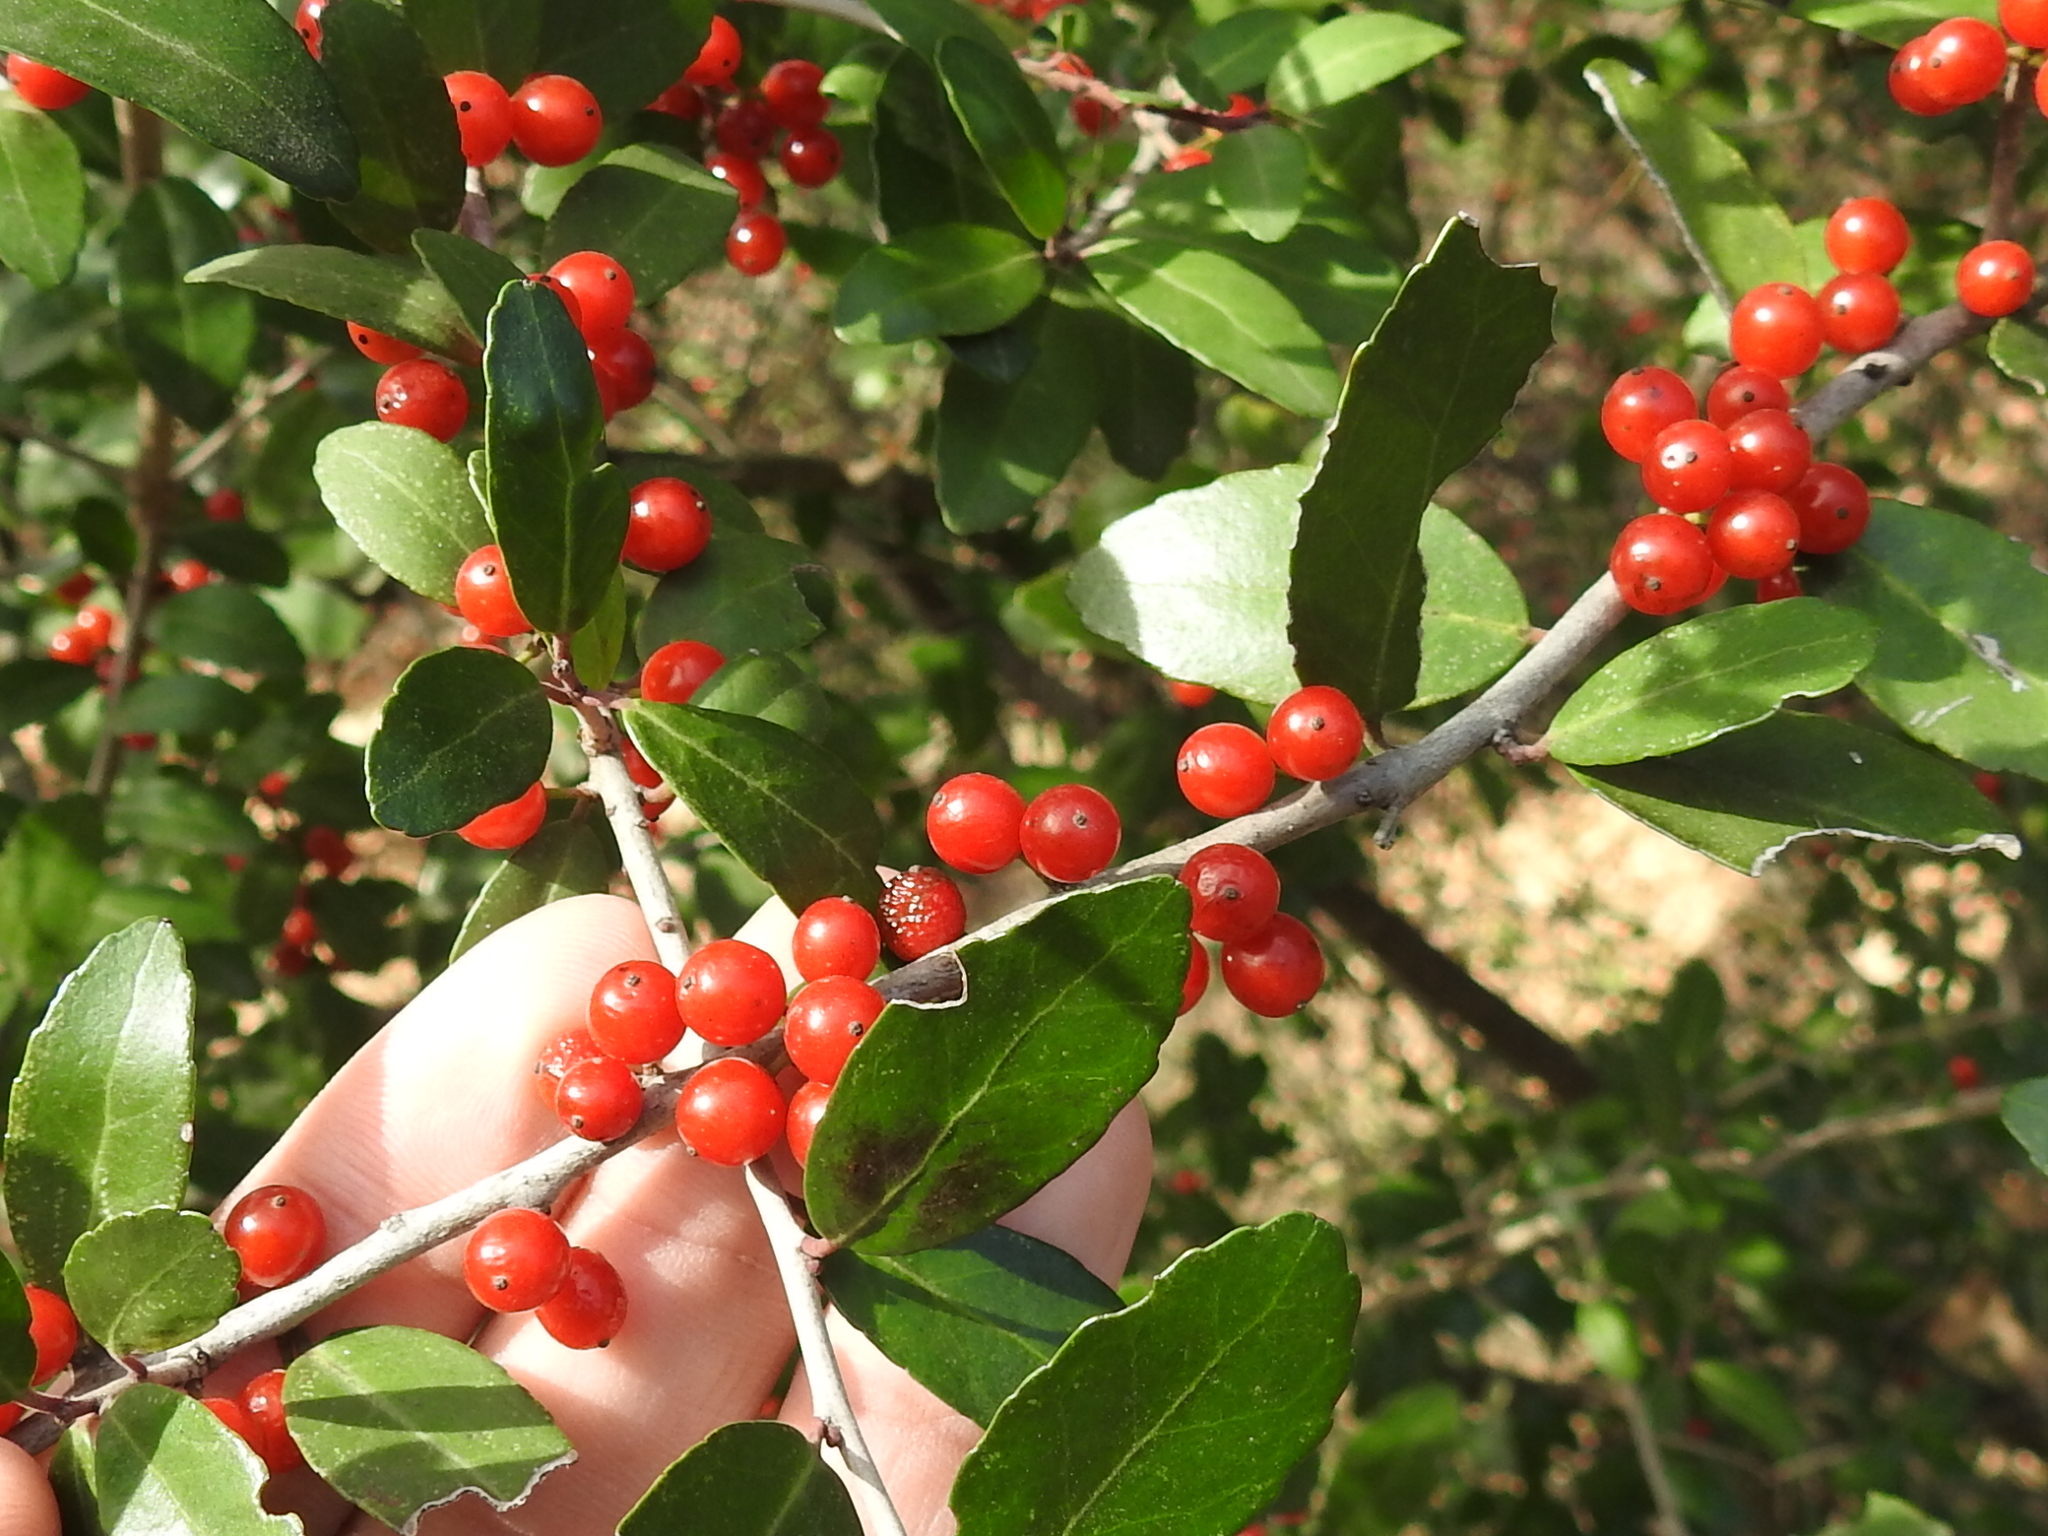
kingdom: Plantae
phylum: Tracheophyta
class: Magnoliopsida
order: Aquifoliales
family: Aquifoliaceae
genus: Ilex
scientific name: Ilex vomitoria
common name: Yaupon holly
